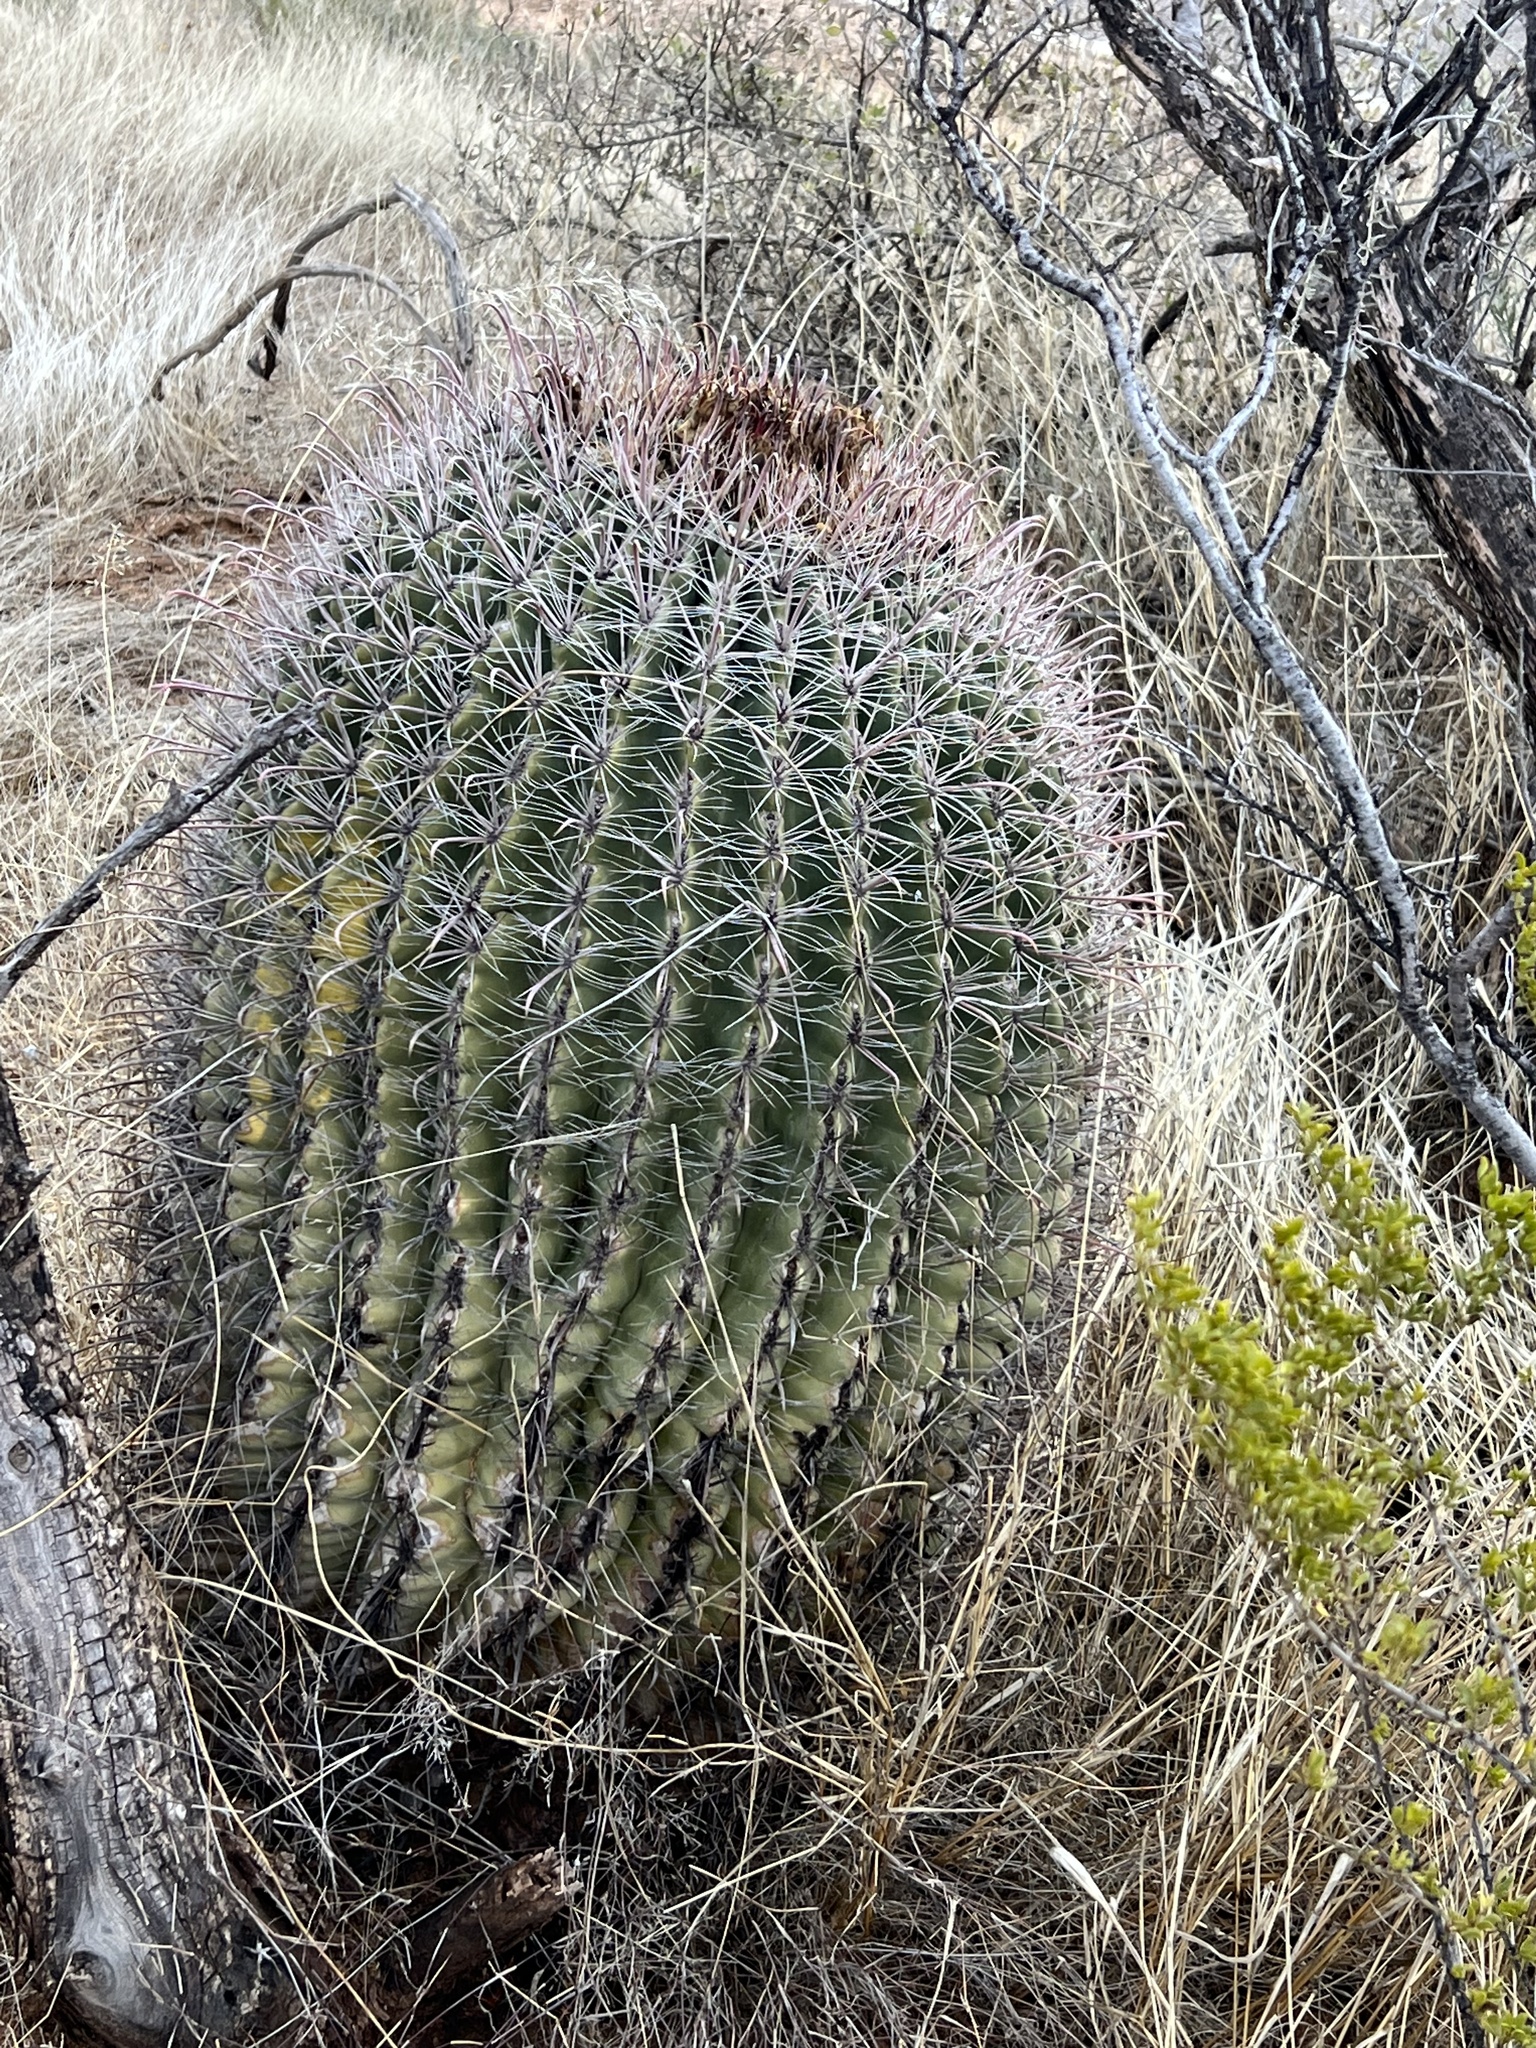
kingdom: Plantae
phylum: Tracheophyta
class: Magnoliopsida
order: Caryophyllales
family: Cactaceae
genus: Ferocactus
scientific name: Ferocactus wislizeni
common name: Candy barrel cactus
